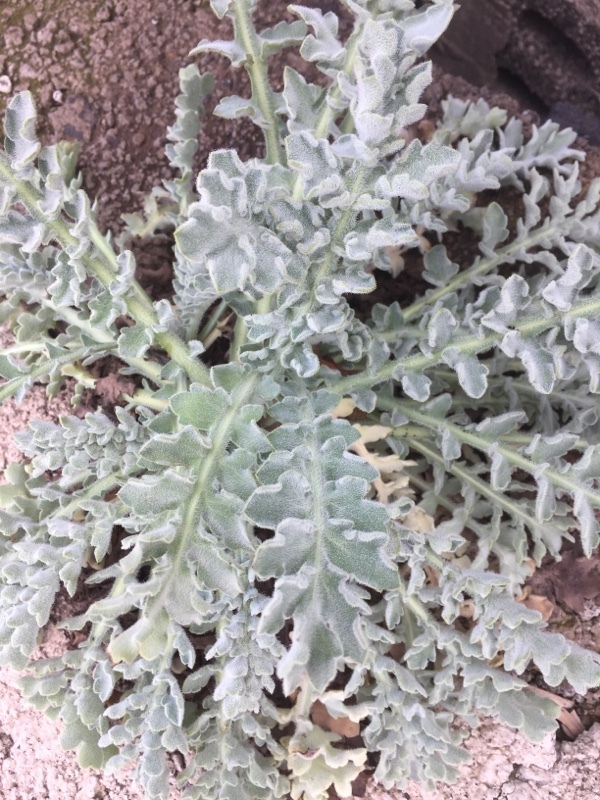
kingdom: Plantae
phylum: Tracheophyta
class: Magnoliopsida
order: Ranunculales
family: Papaveraceae
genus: Glaucium
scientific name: Glaucium flavum
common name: Yellow horned-poppy
